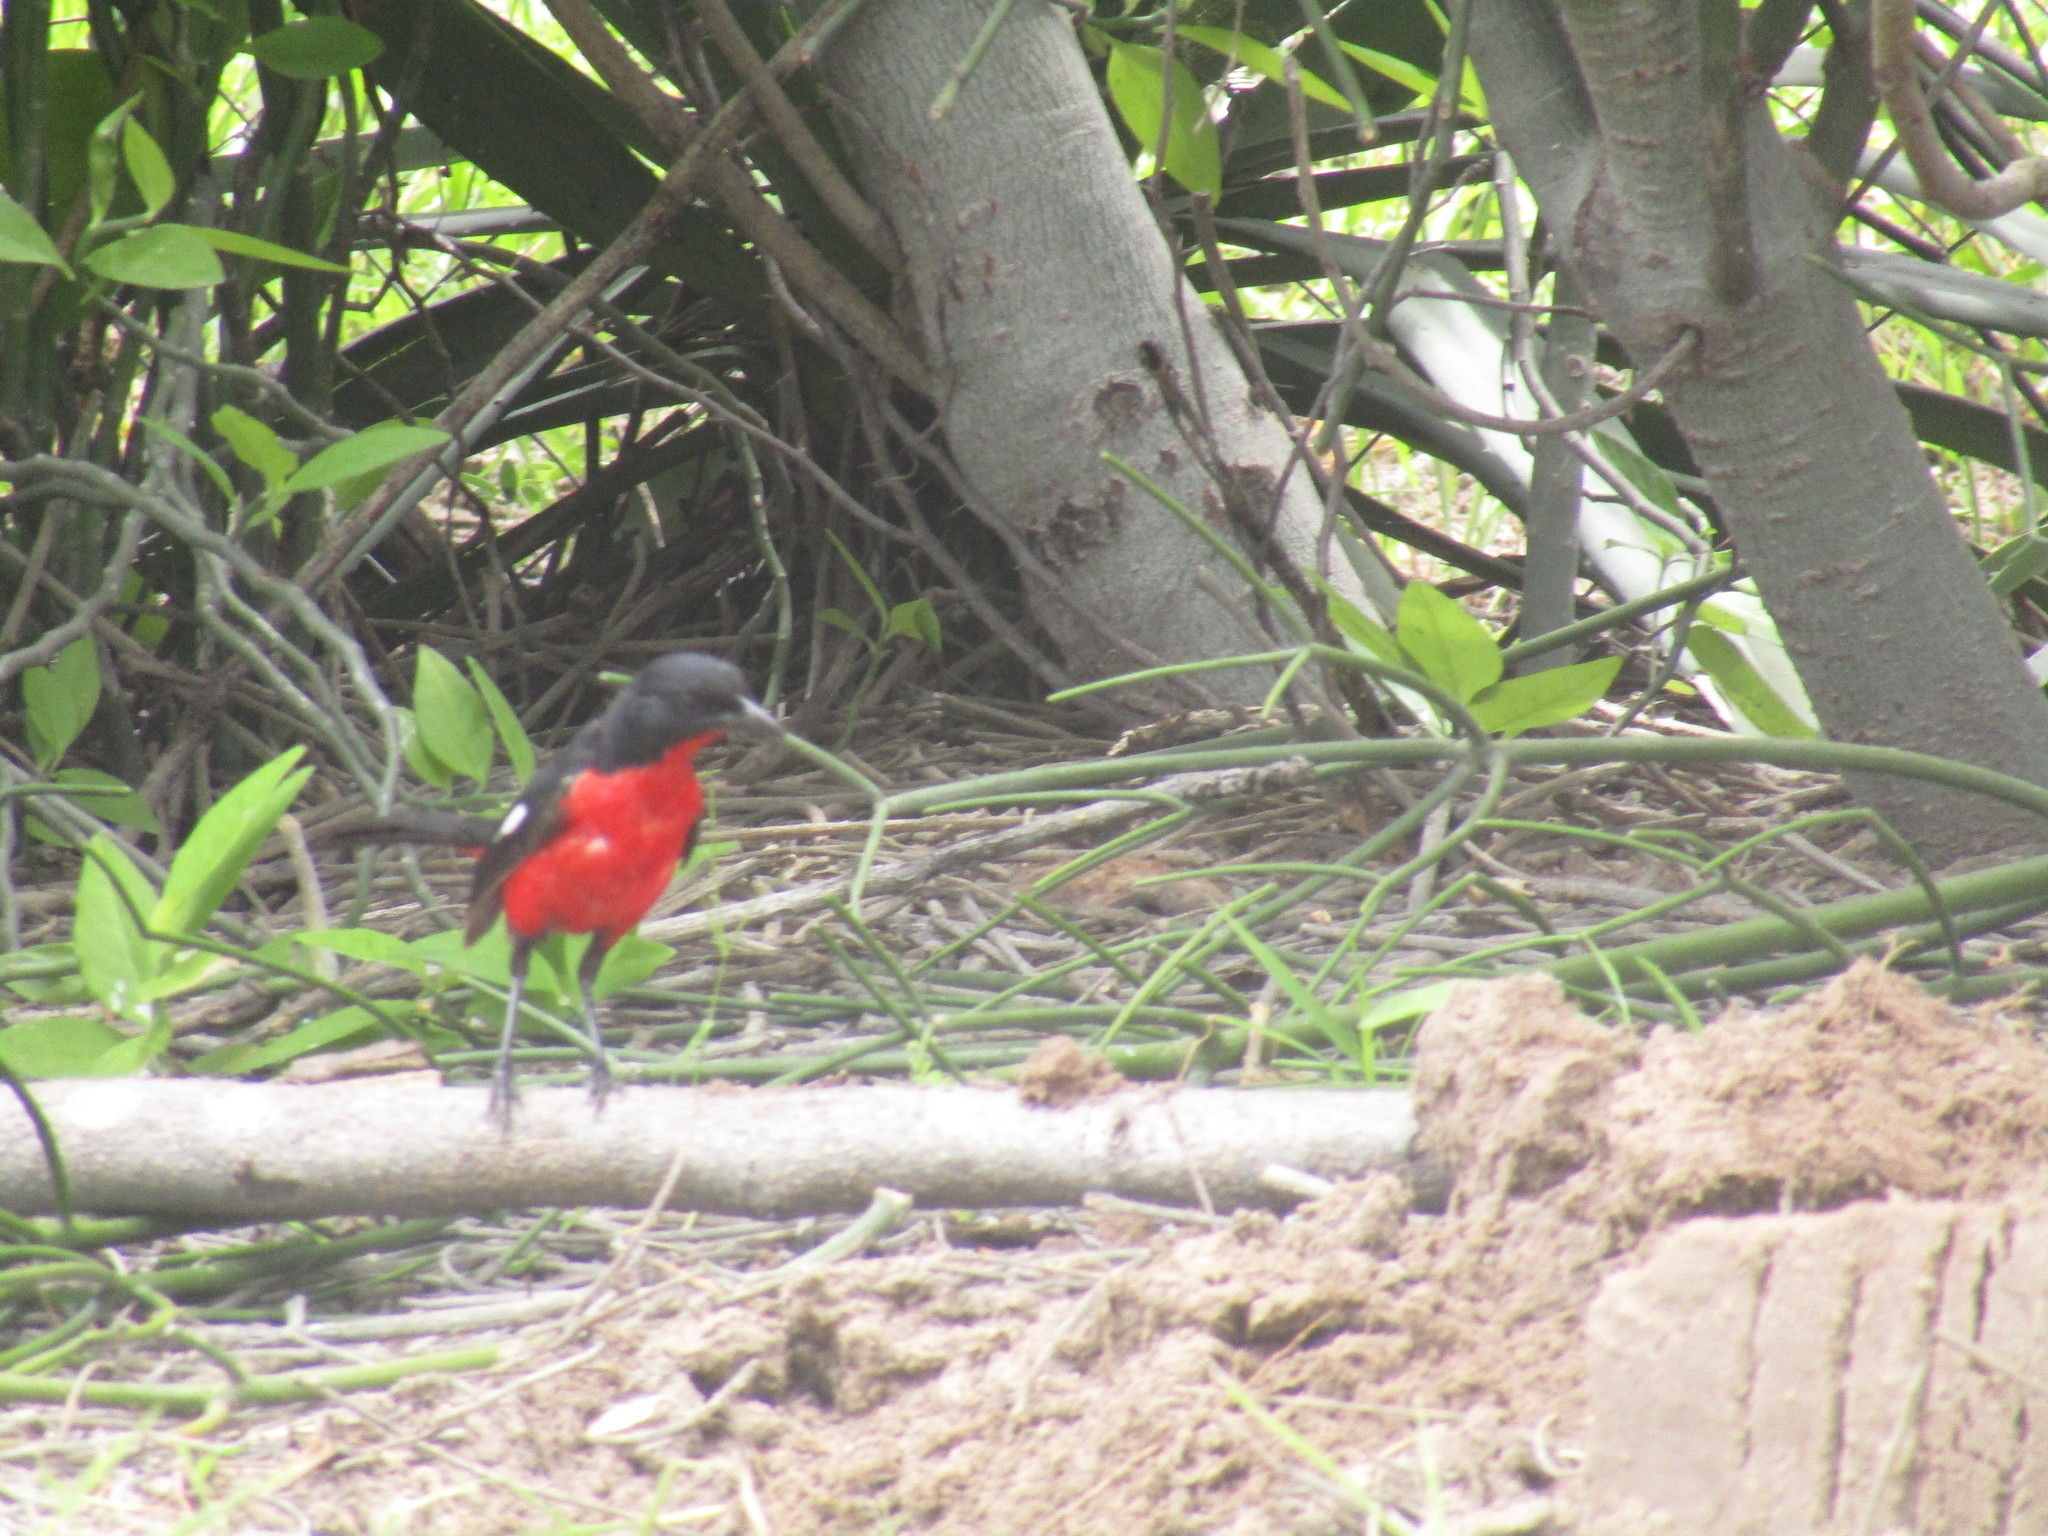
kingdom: Animalia
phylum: Chordata
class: Aves
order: Passeriformes
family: Malaconotidae
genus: Laniarius
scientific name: Laniarius atrococcineus
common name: Crimson-breasted shrike
